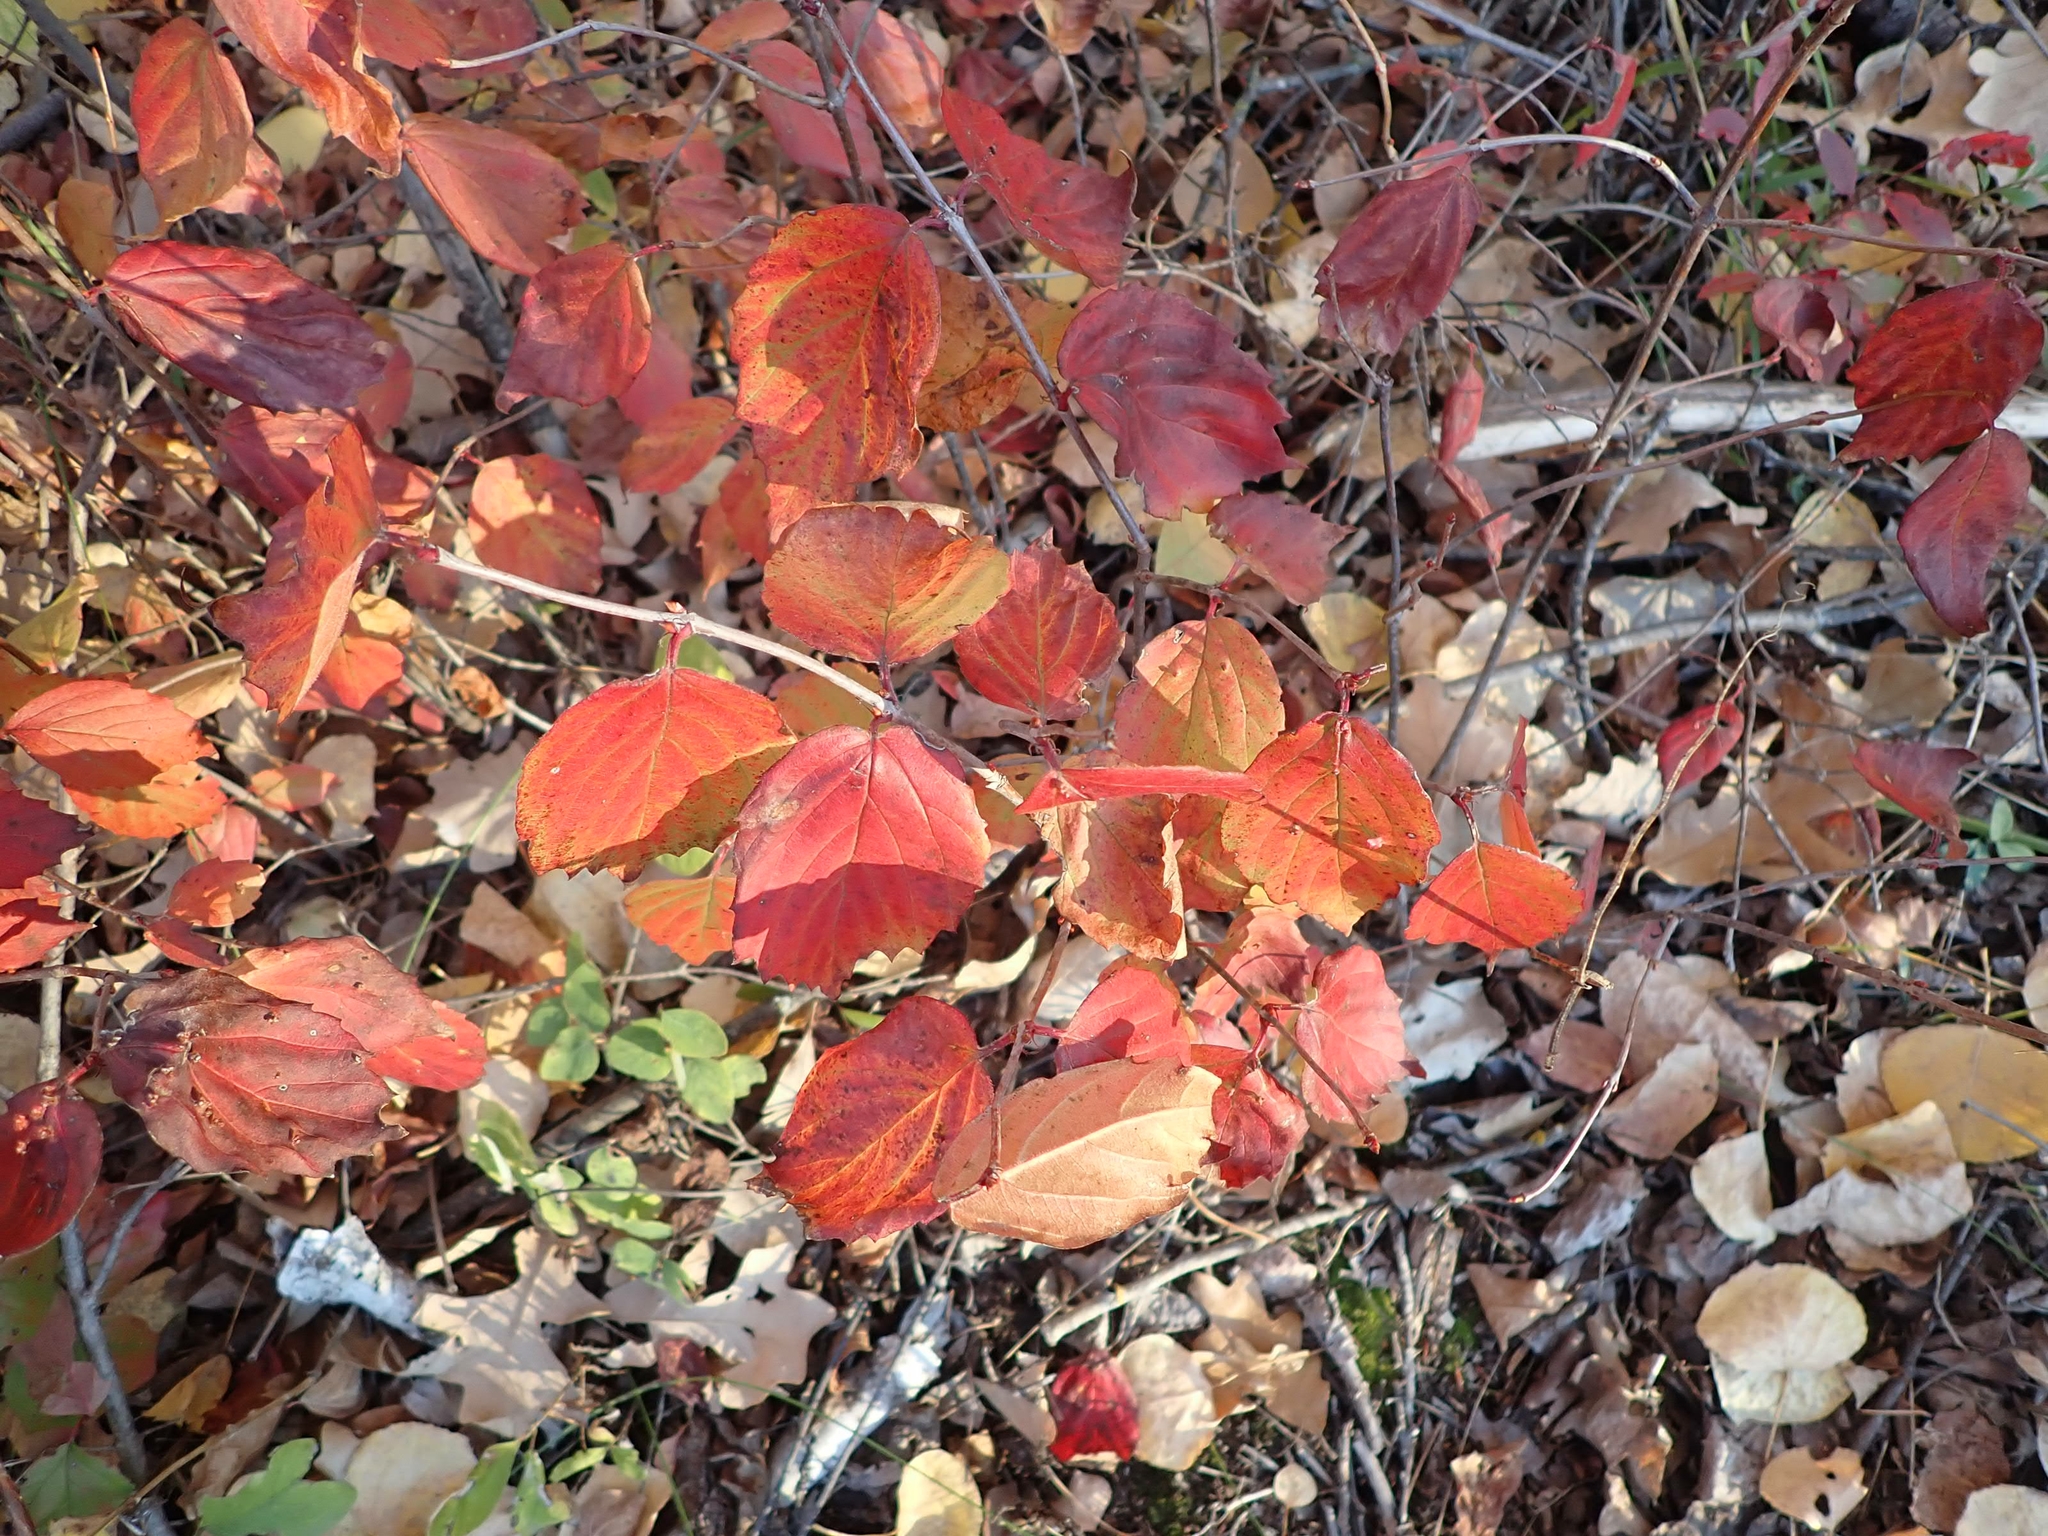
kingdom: Plantae
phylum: Tracheophyta
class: Magnoliopsida
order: Dipsacales
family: Viburnaceae
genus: Viburnum
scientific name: Viburnum rafinesqueanum
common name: Downy arrow-wood
